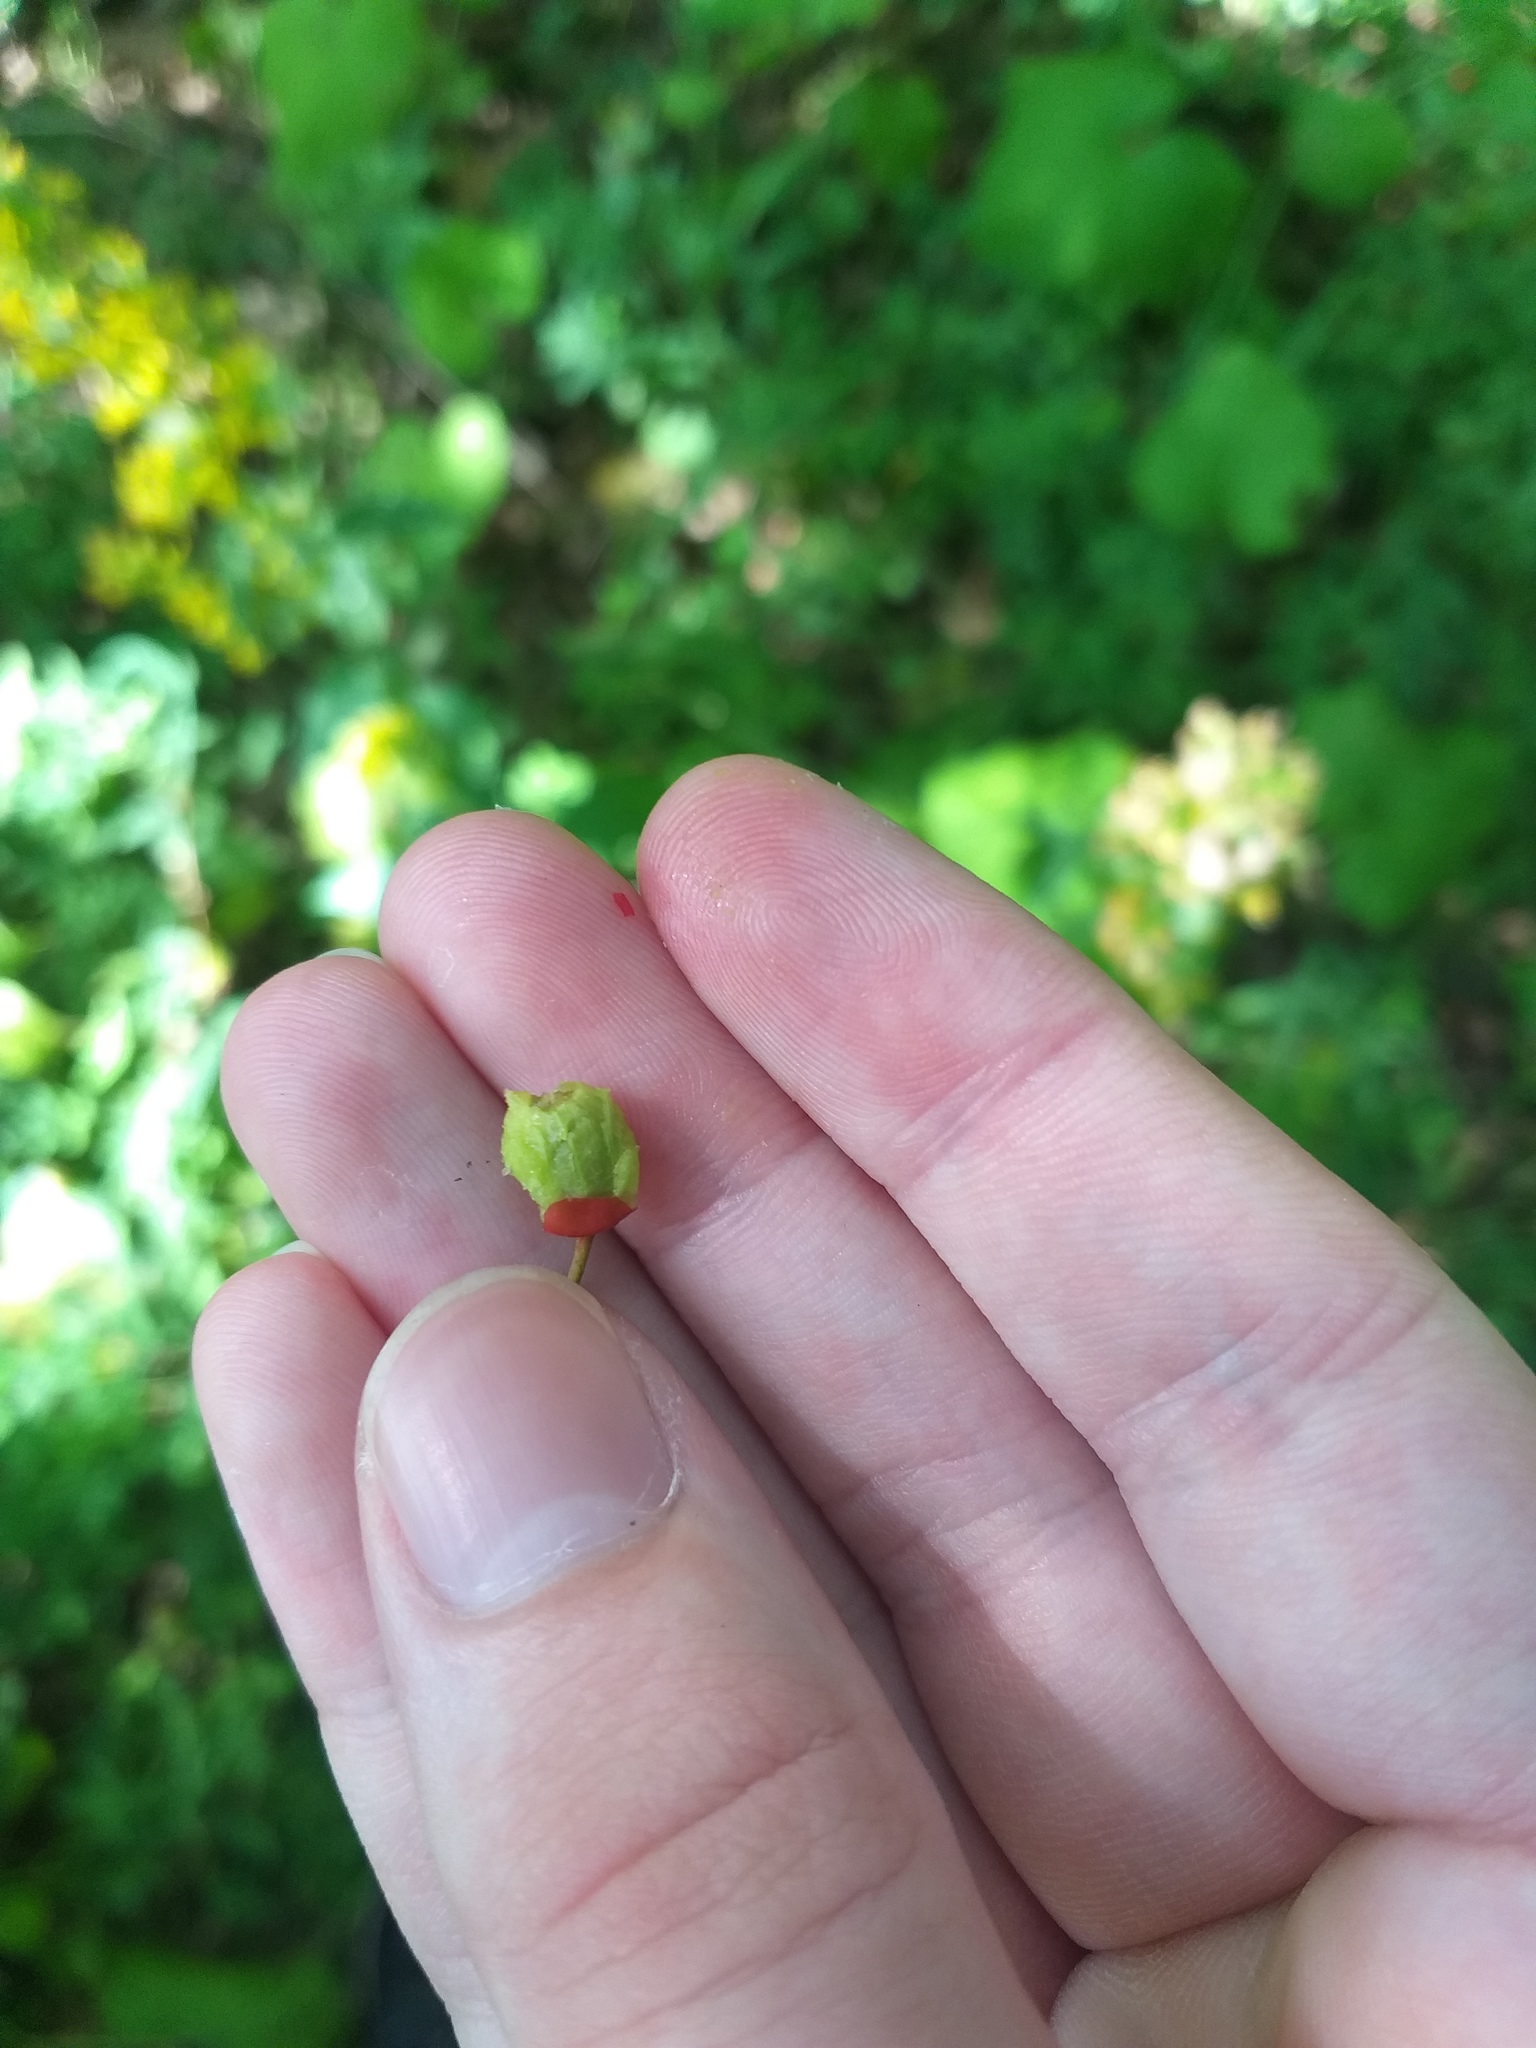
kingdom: Plantae
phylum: Tracheophyta
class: Magnoliopsida
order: Rosales
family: Rosaceae
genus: Crataegus
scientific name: Crataegus rhipidophylla
